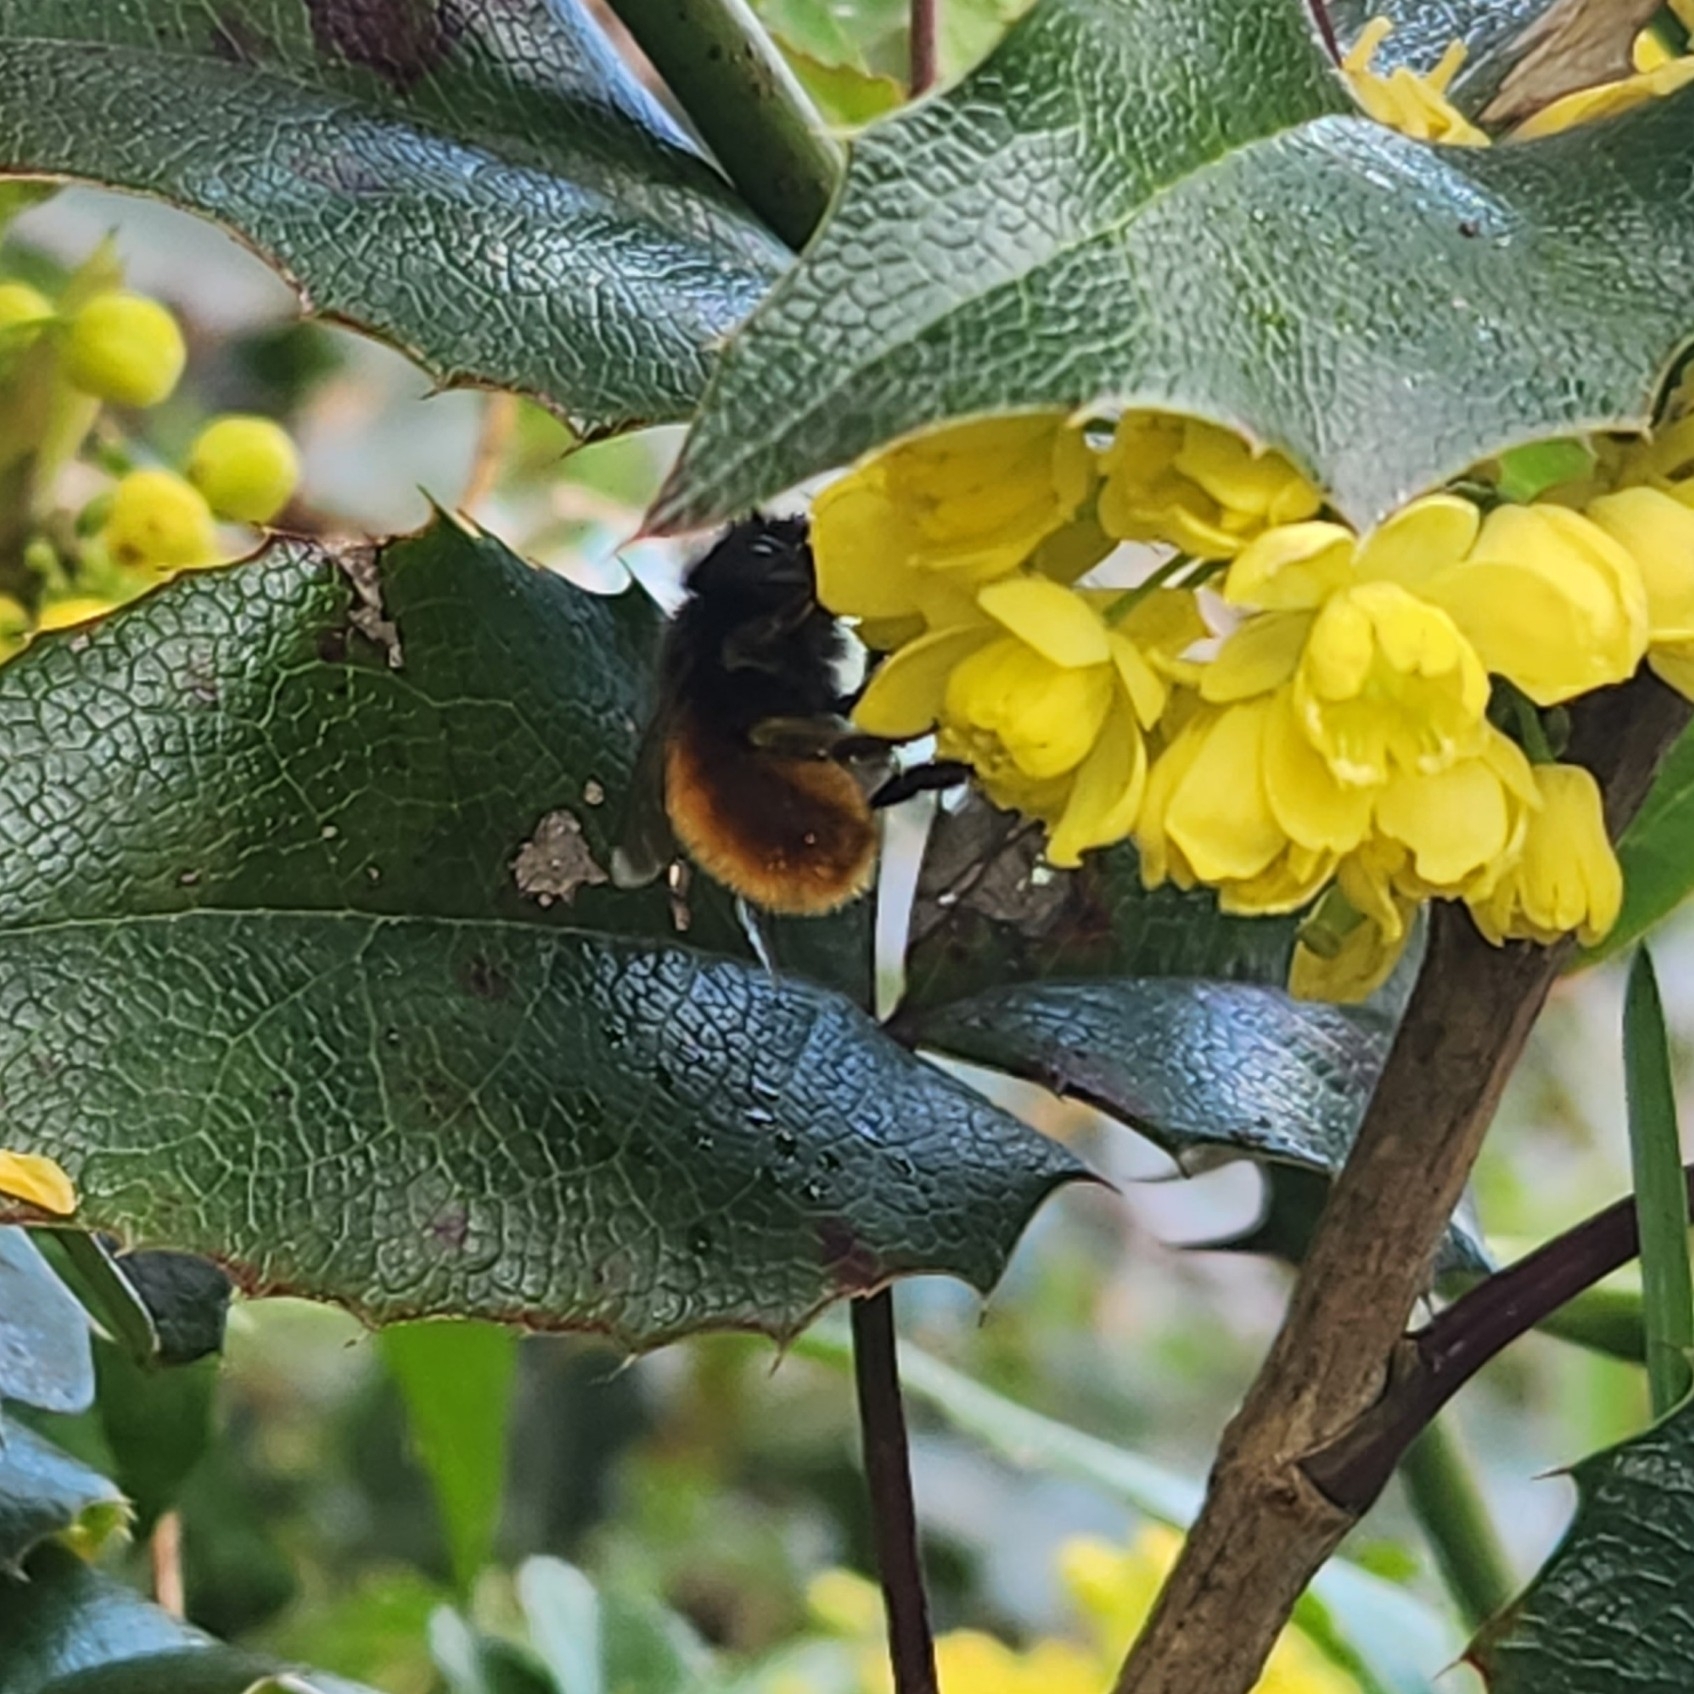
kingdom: Animalia
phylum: Arthropoda
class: Insecta
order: Hymenoptera
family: Megachilidae
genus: Osmia
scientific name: Osmia cornuta
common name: Mason bee
